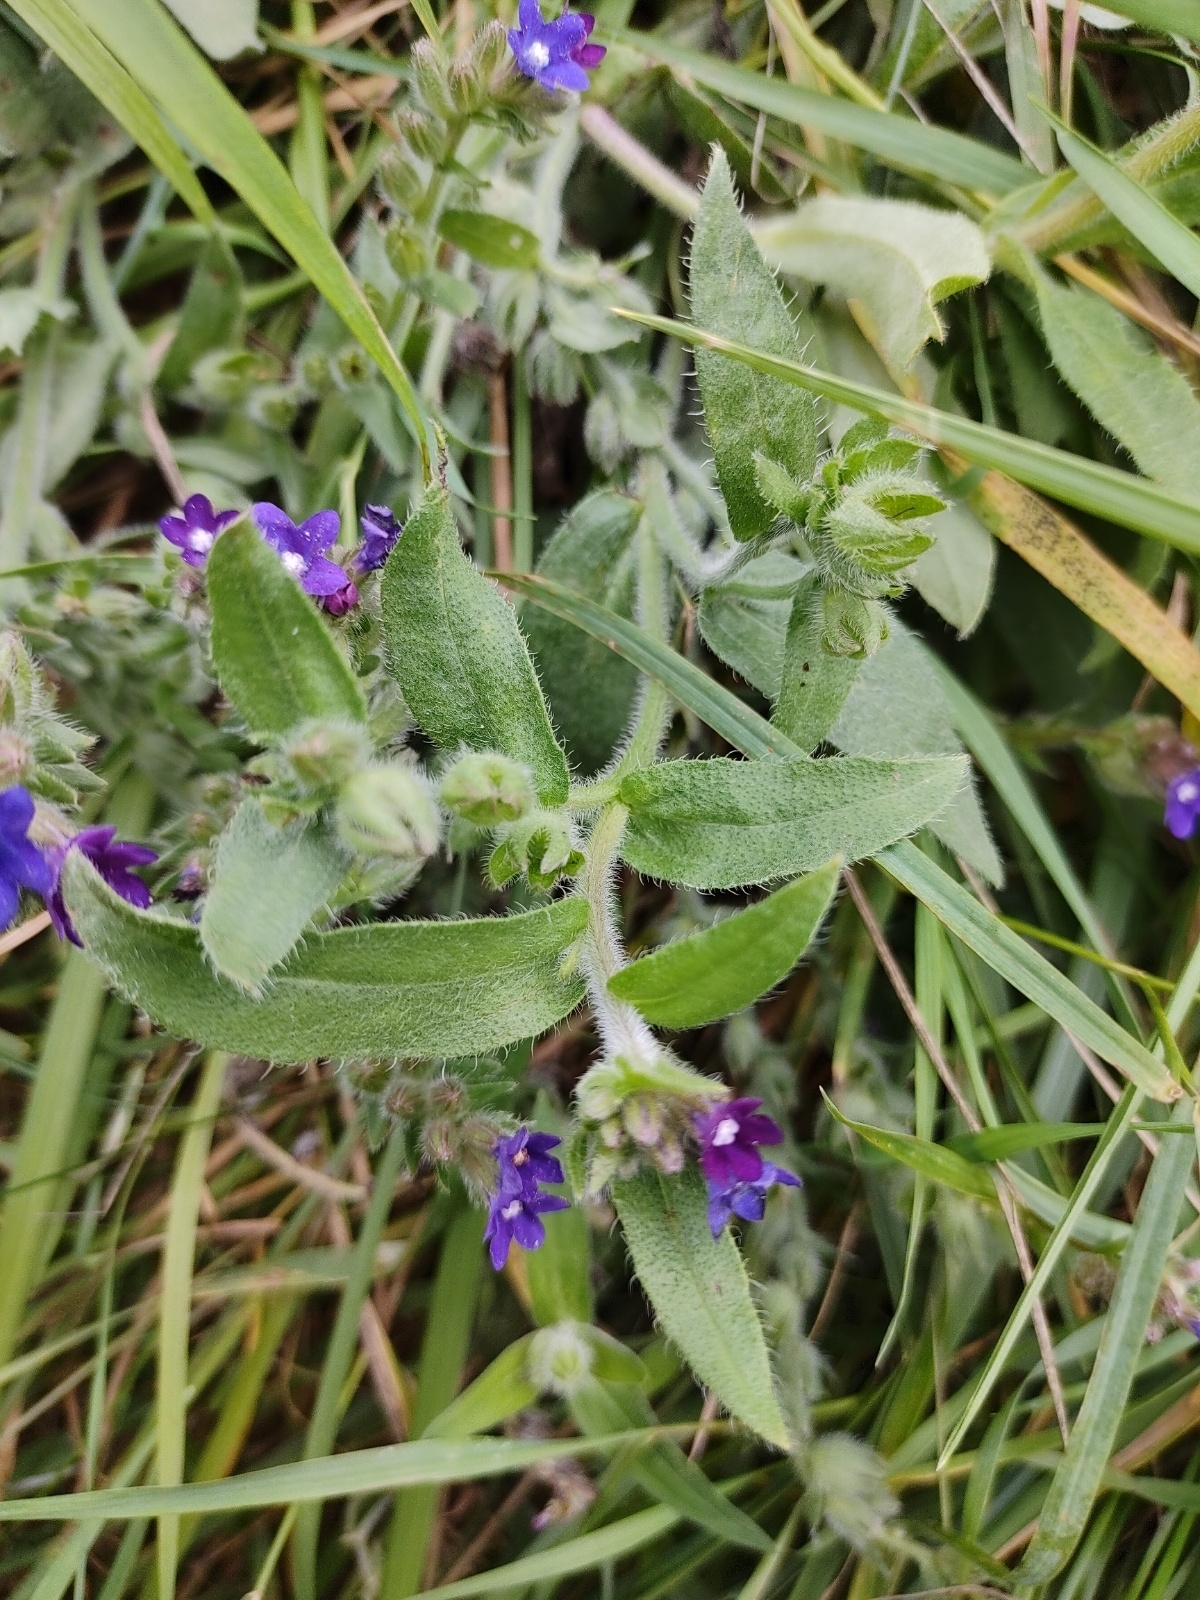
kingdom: Plantae
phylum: Tracheophyta
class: Magnoliopsida
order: Boraginales
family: Boraginaceae
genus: Anchusa
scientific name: Anchusa officinalis
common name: Alkanet
